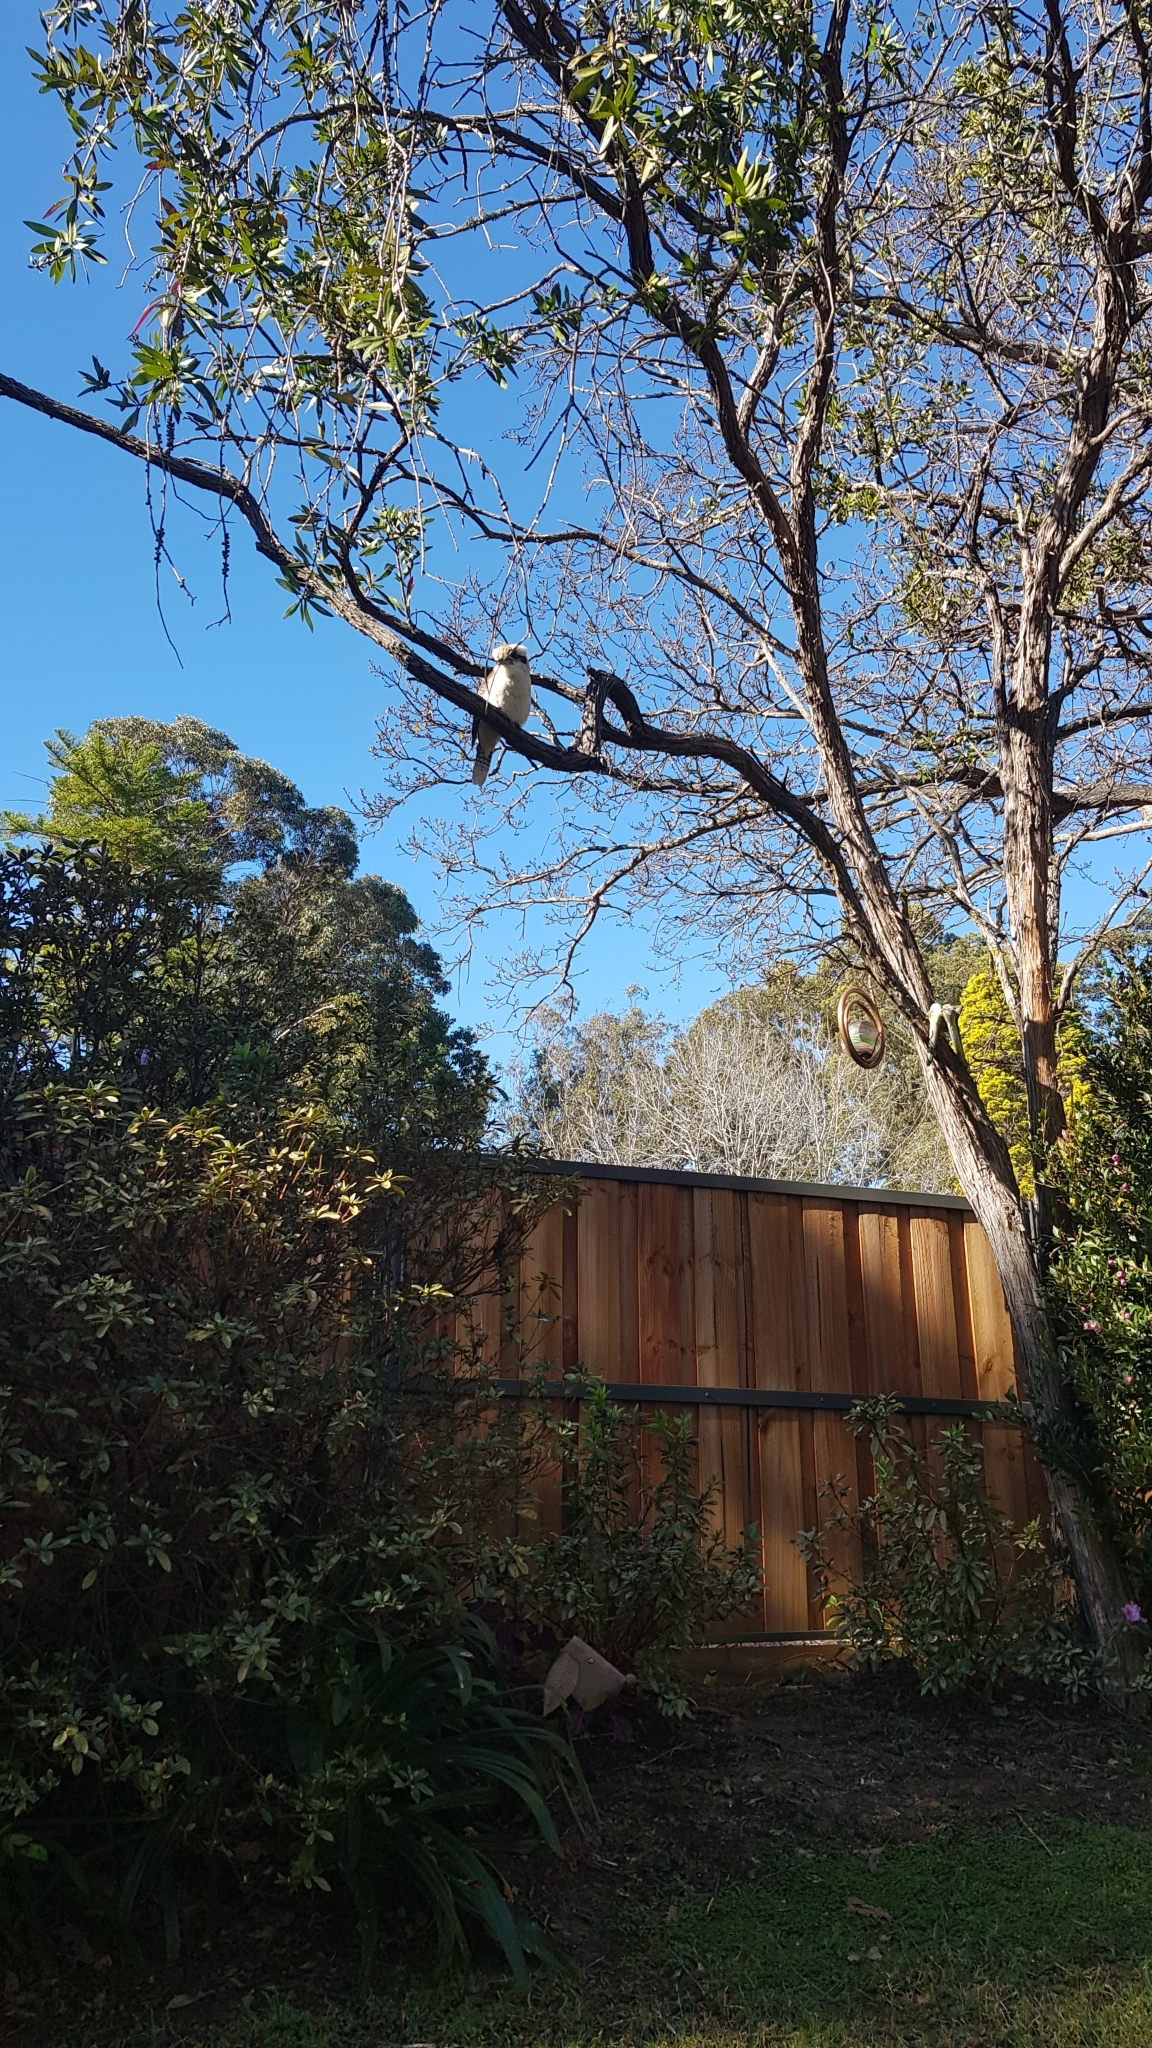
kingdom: Animalia
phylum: Chordata
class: Aves
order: Coraciiformes
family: Alcedinidae
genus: Dacelo
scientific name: Dacelo novaeguineae
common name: Laughing kookaburra
